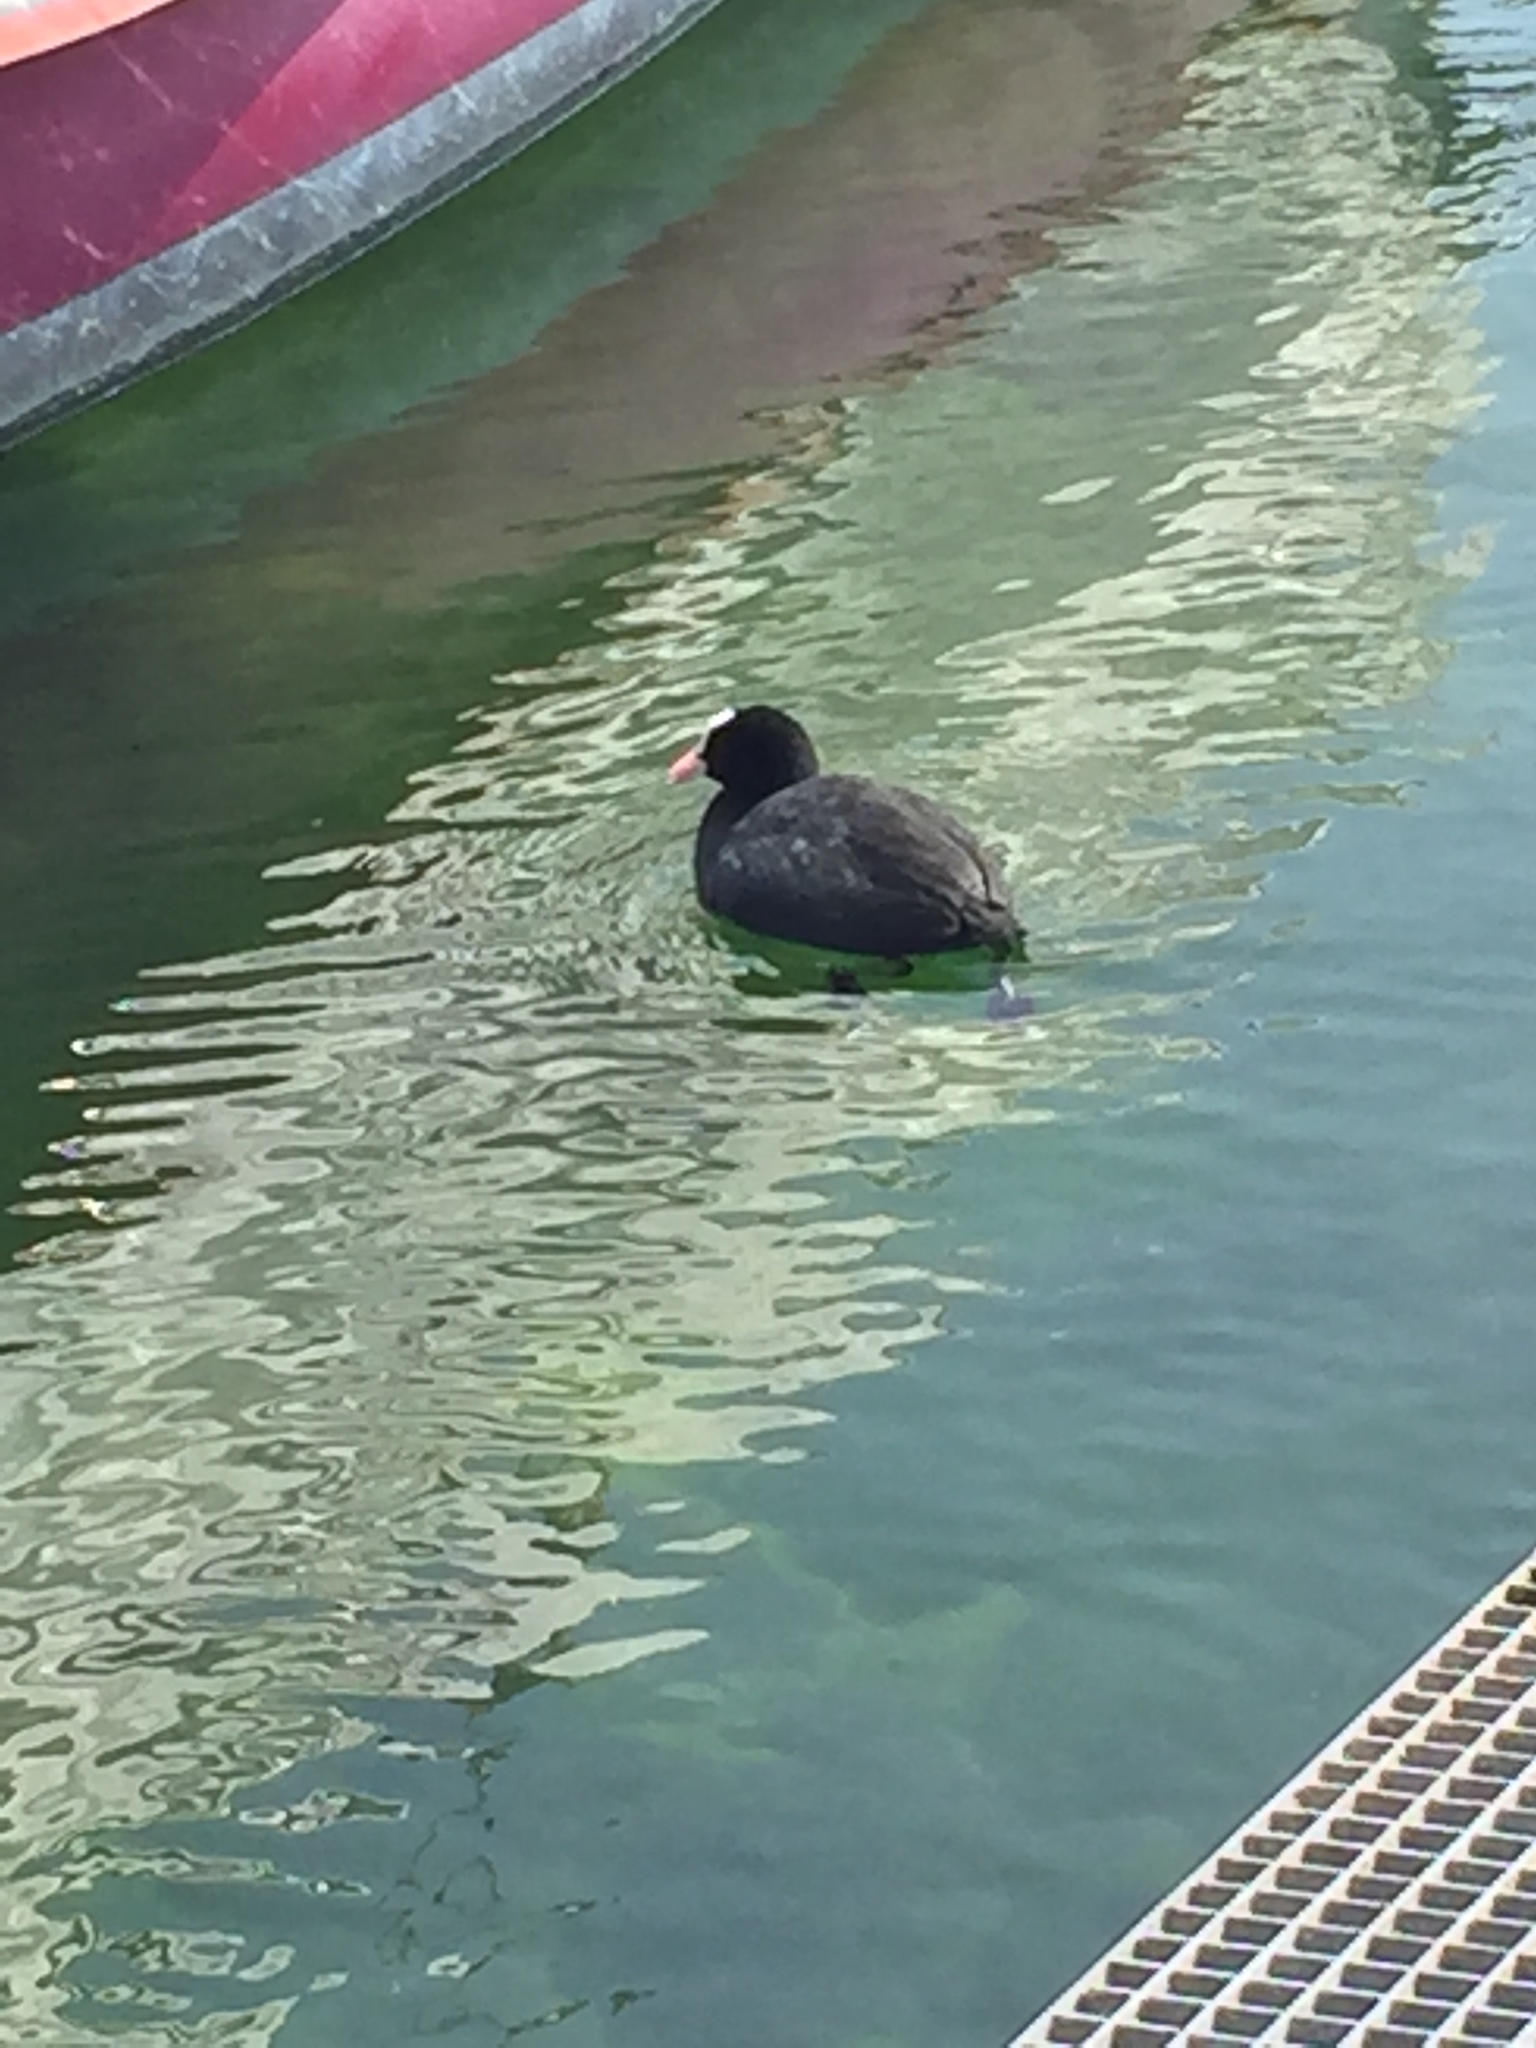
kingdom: Animalia
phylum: Chordata
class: Aves
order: Gruiformes
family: Rallidae
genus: Fulica
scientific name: Fulica atra
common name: Eurasian coot
